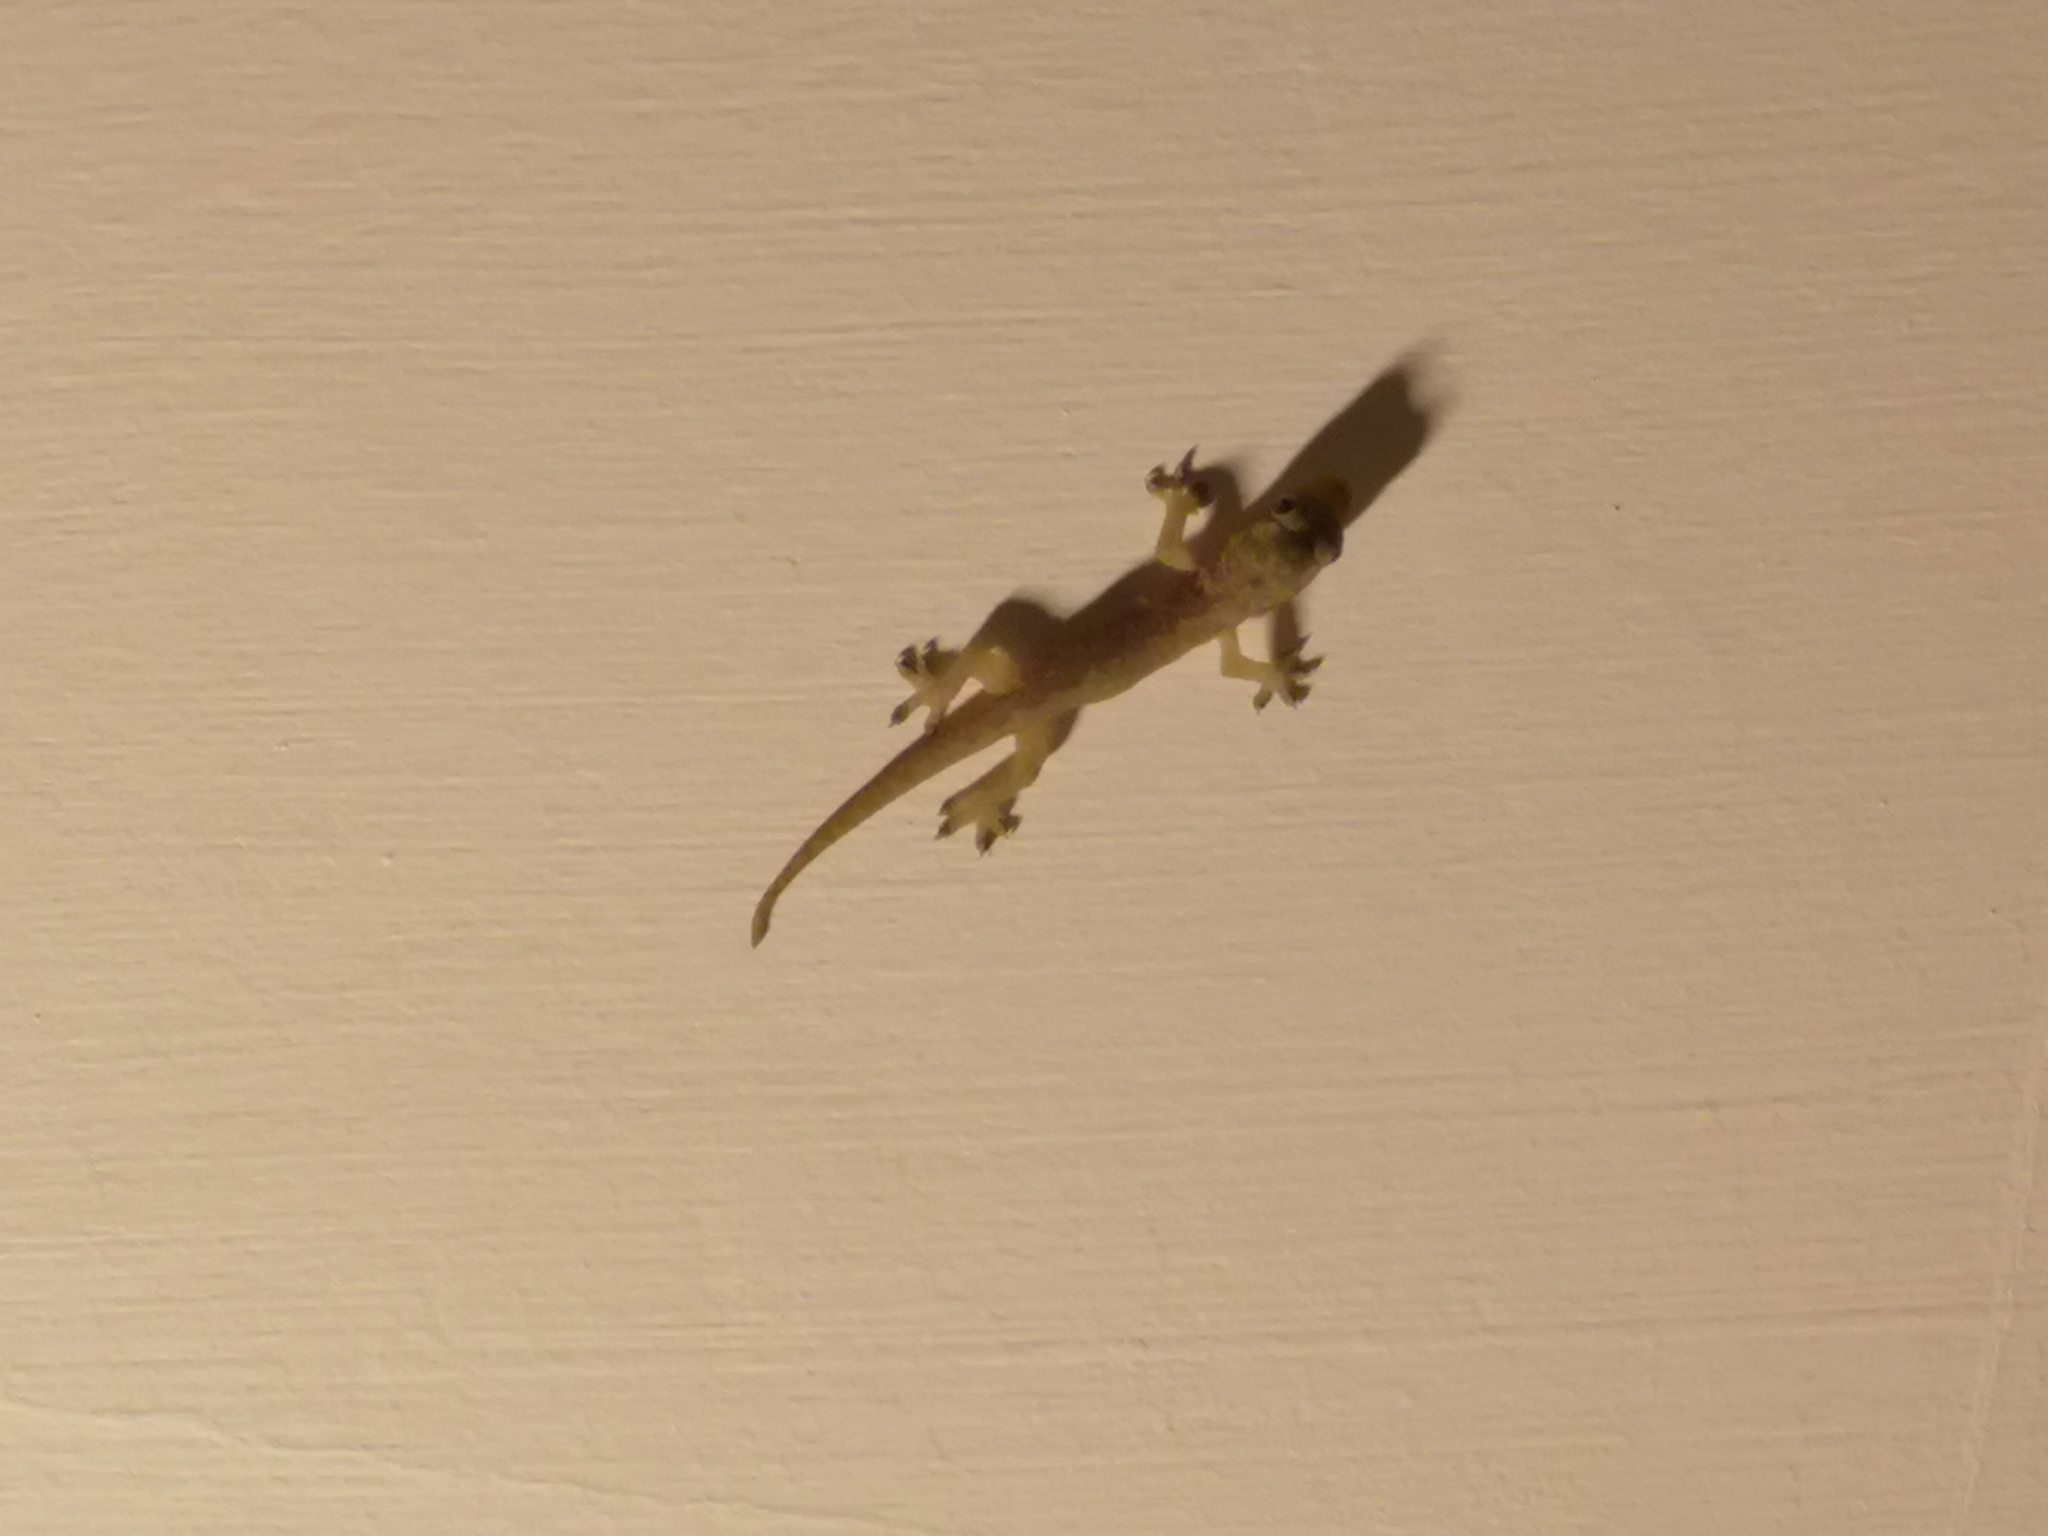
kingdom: Animalia
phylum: Chordata
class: Squamata
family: Gekkonidae
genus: Hemidactylus
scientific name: Hemidactylus frenatus
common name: Common house gecko
